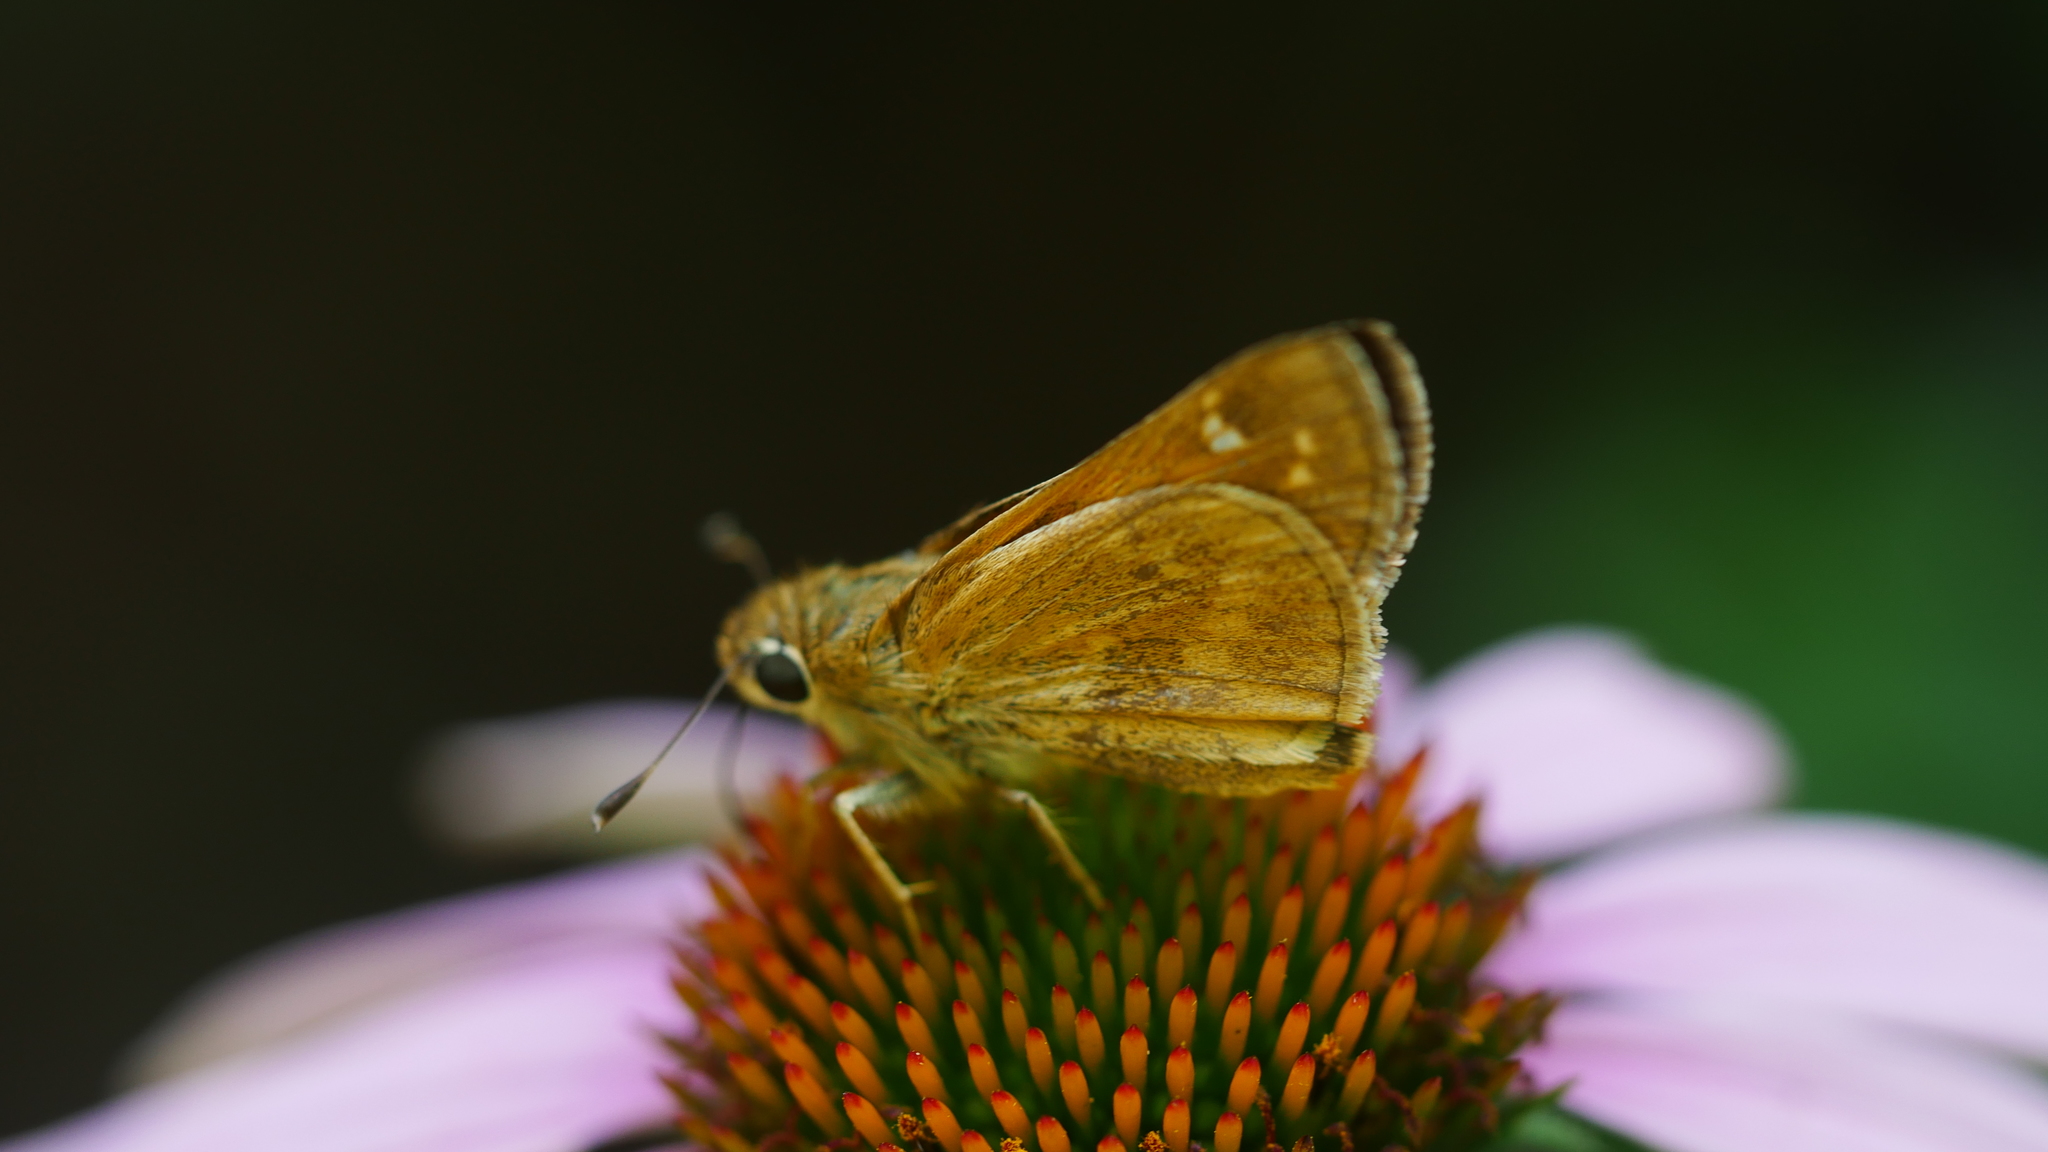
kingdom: Animalia
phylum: Arthropoda
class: Insecta
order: Lepidoptera
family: Hesperiidae
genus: Atalopedes
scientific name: Atalopedes
